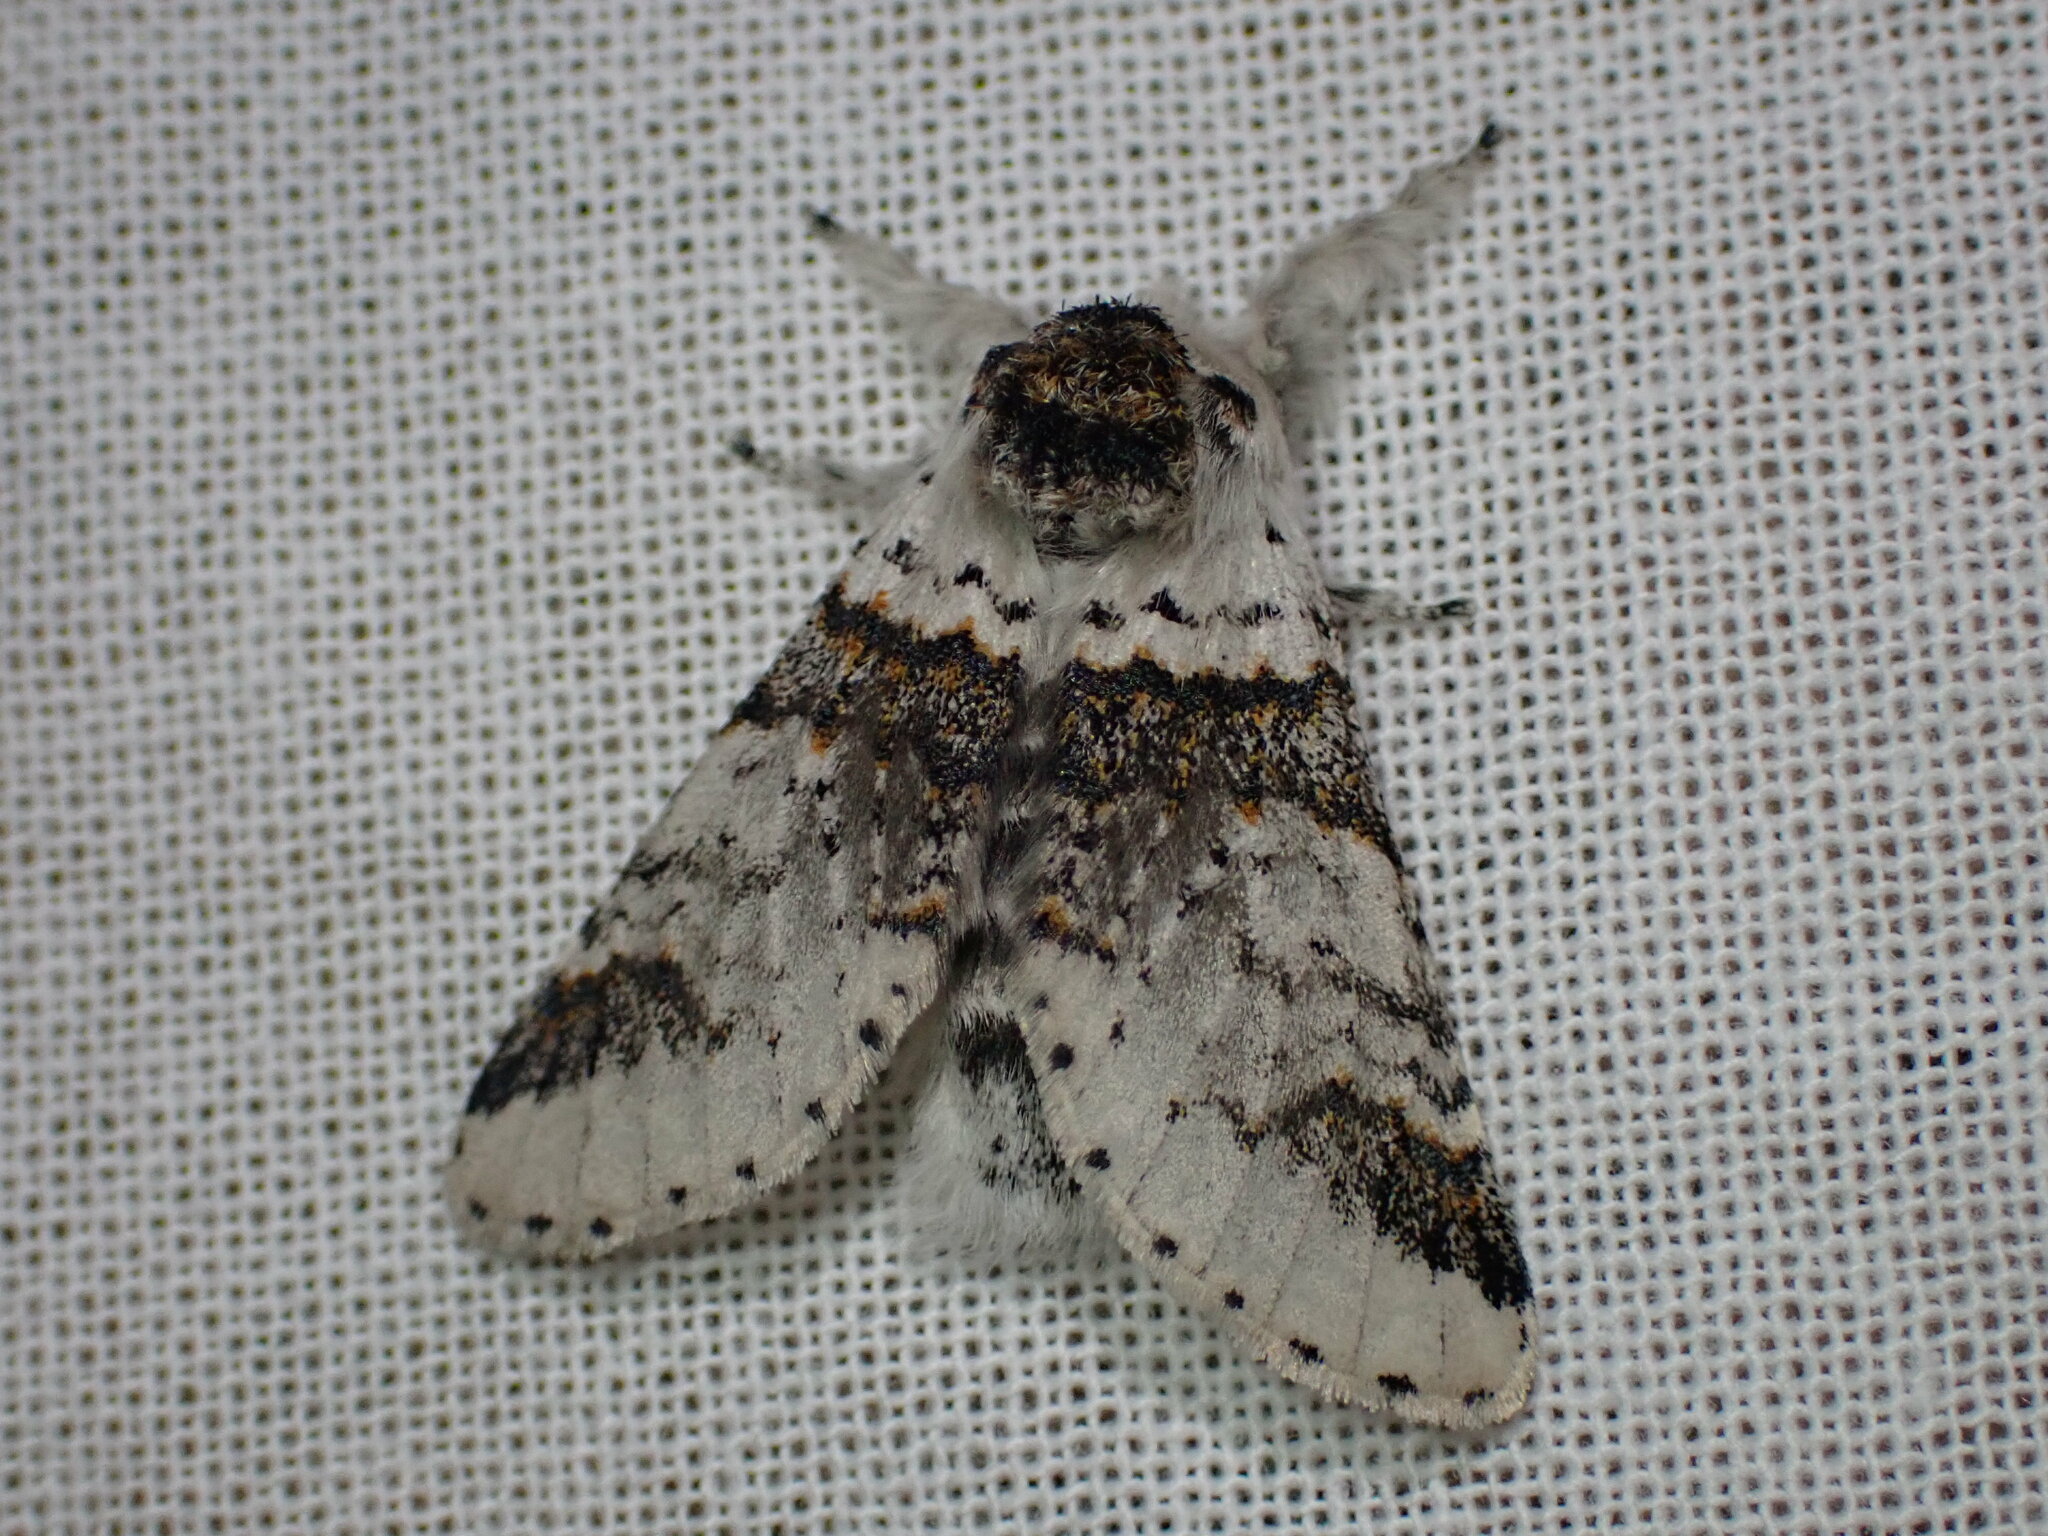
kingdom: Animalia
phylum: Arthropoda
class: Insecta
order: Lepidoptera
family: Notodontidae
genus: Furcula
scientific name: Furcula scolopendrina
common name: Zigzag furcula moth
